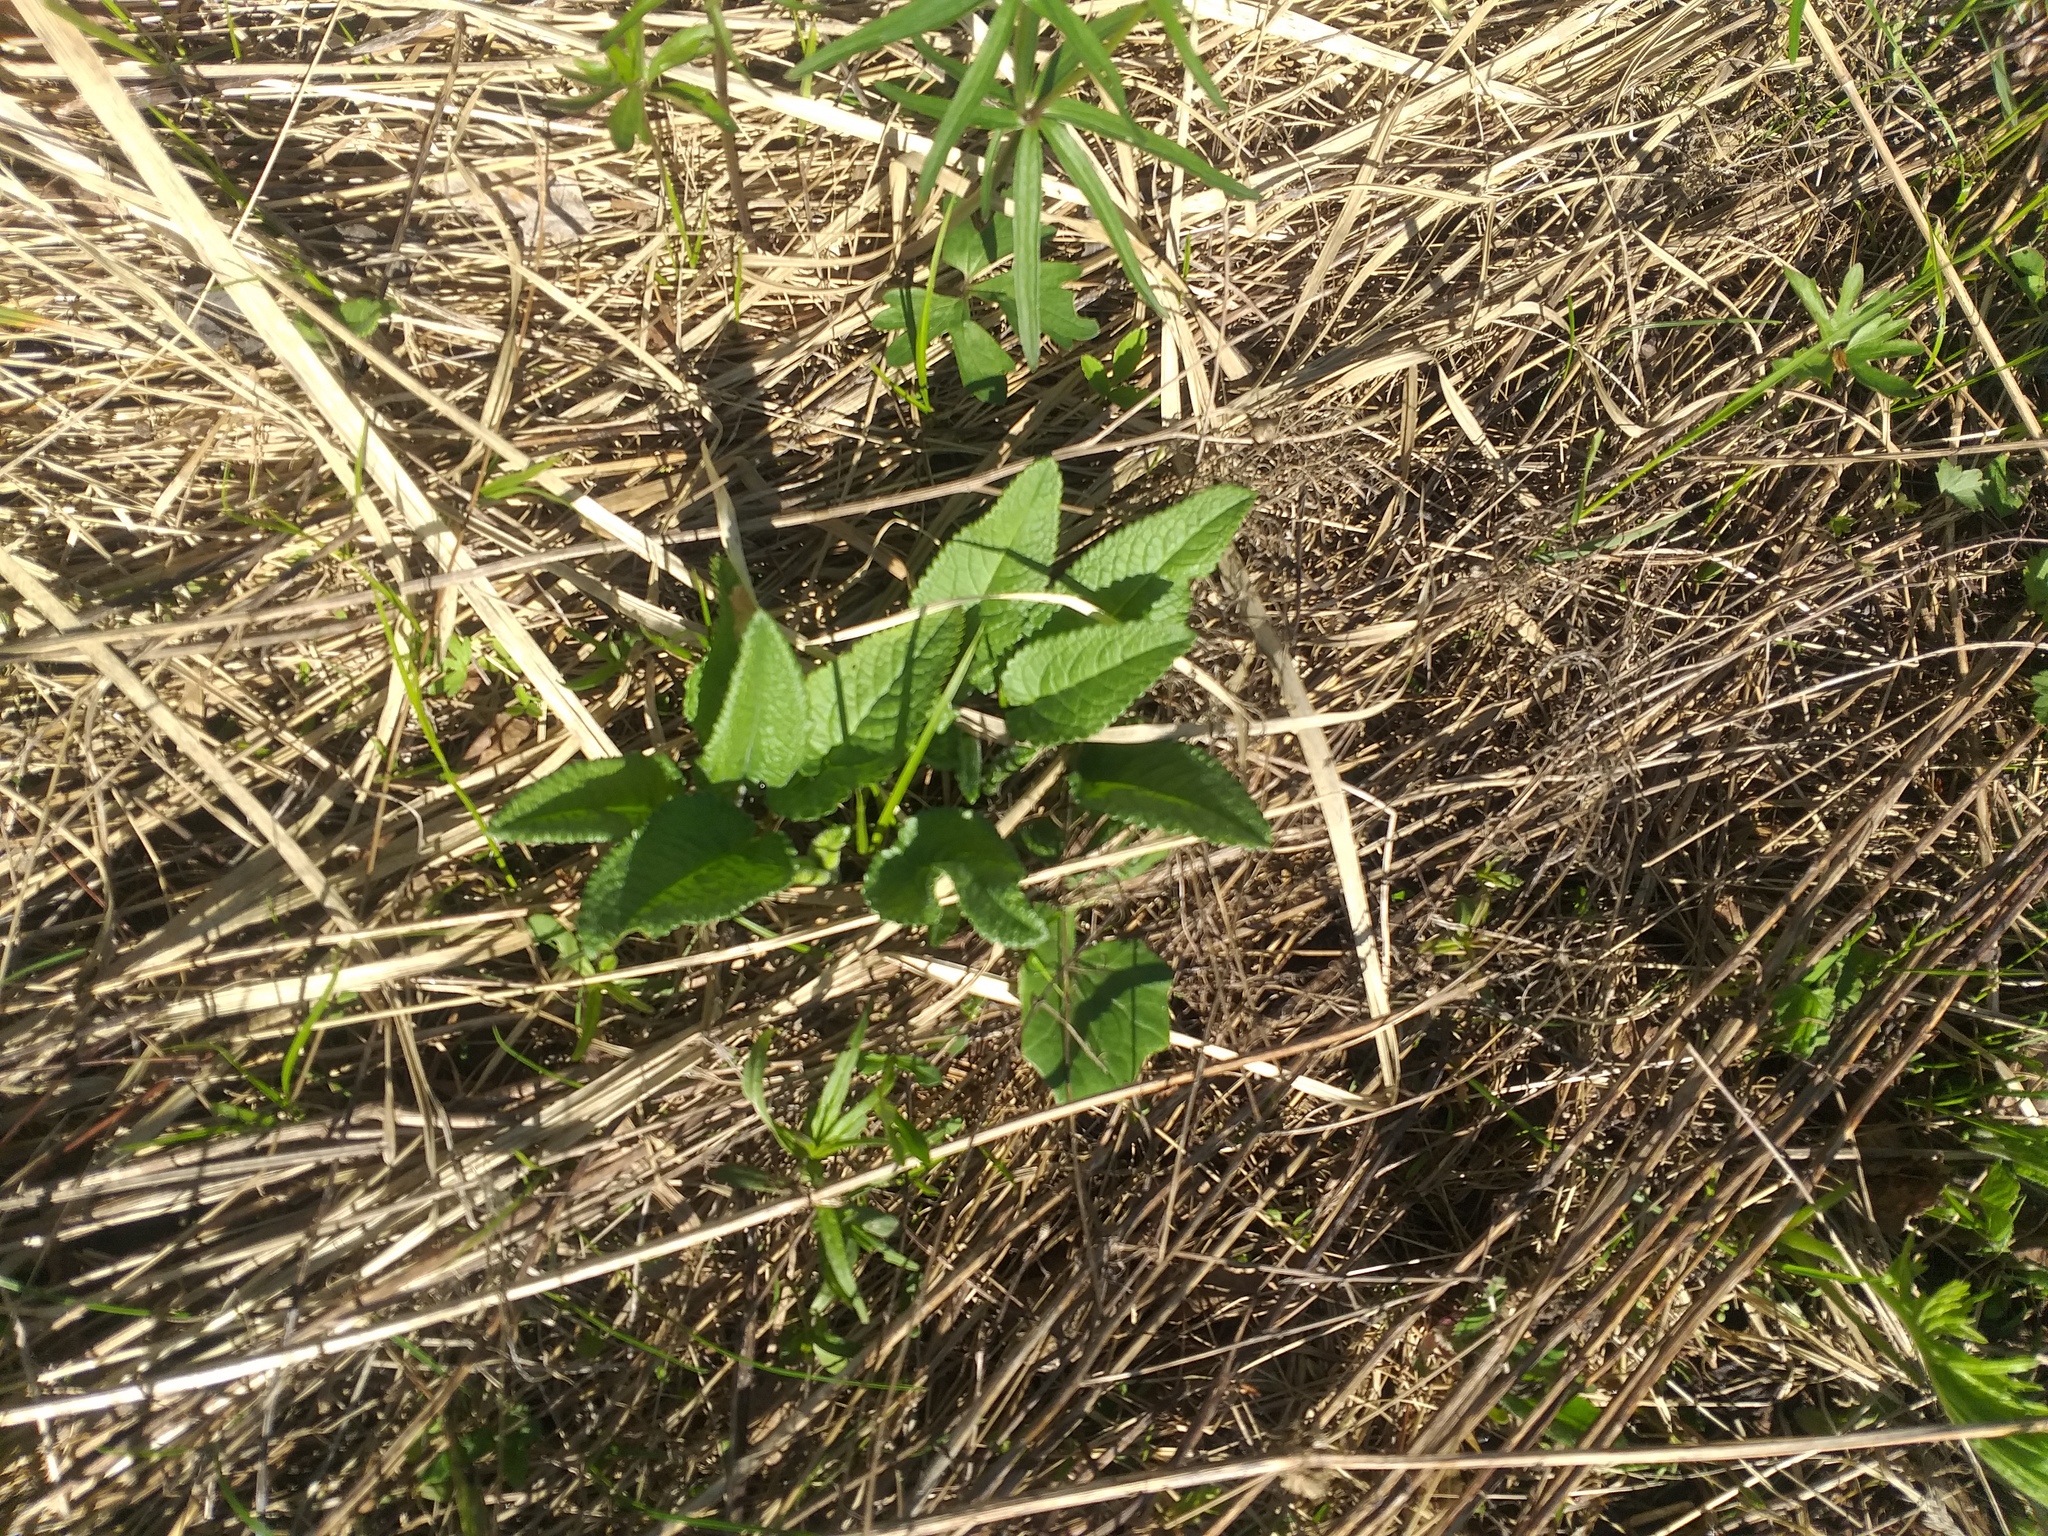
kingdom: Plantae
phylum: Tracheophyta
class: Magnoliopsida
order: Lamiales
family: Lamiaceae
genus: Betonica
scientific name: Betonica officinalis
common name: Bishop's-wort
